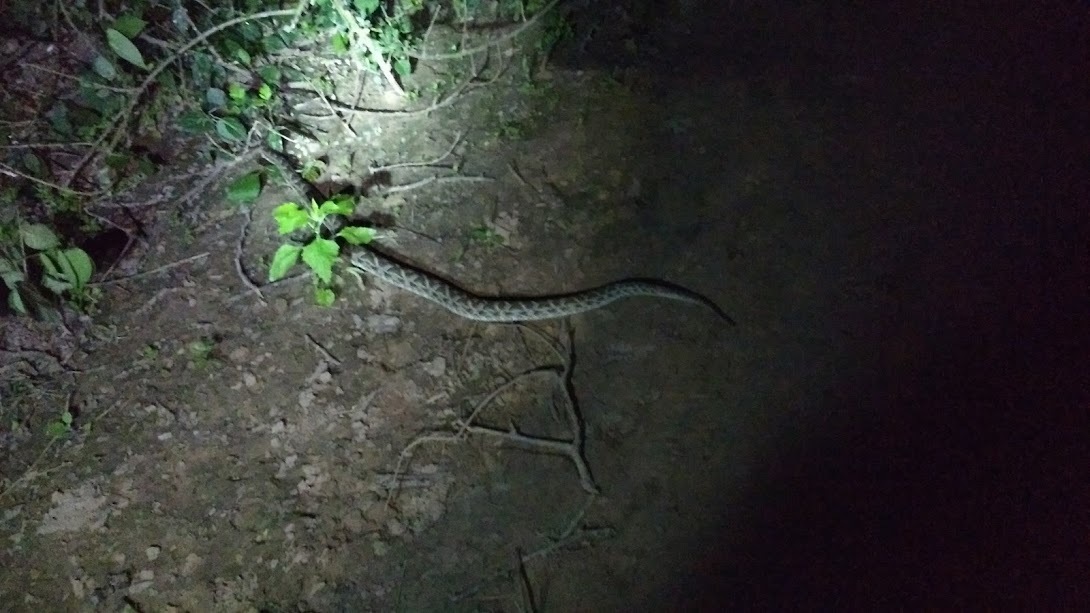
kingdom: Animalia
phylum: Chordata
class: Squamata
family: Viperidae
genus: Bothrops
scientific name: Bothrops diporus
